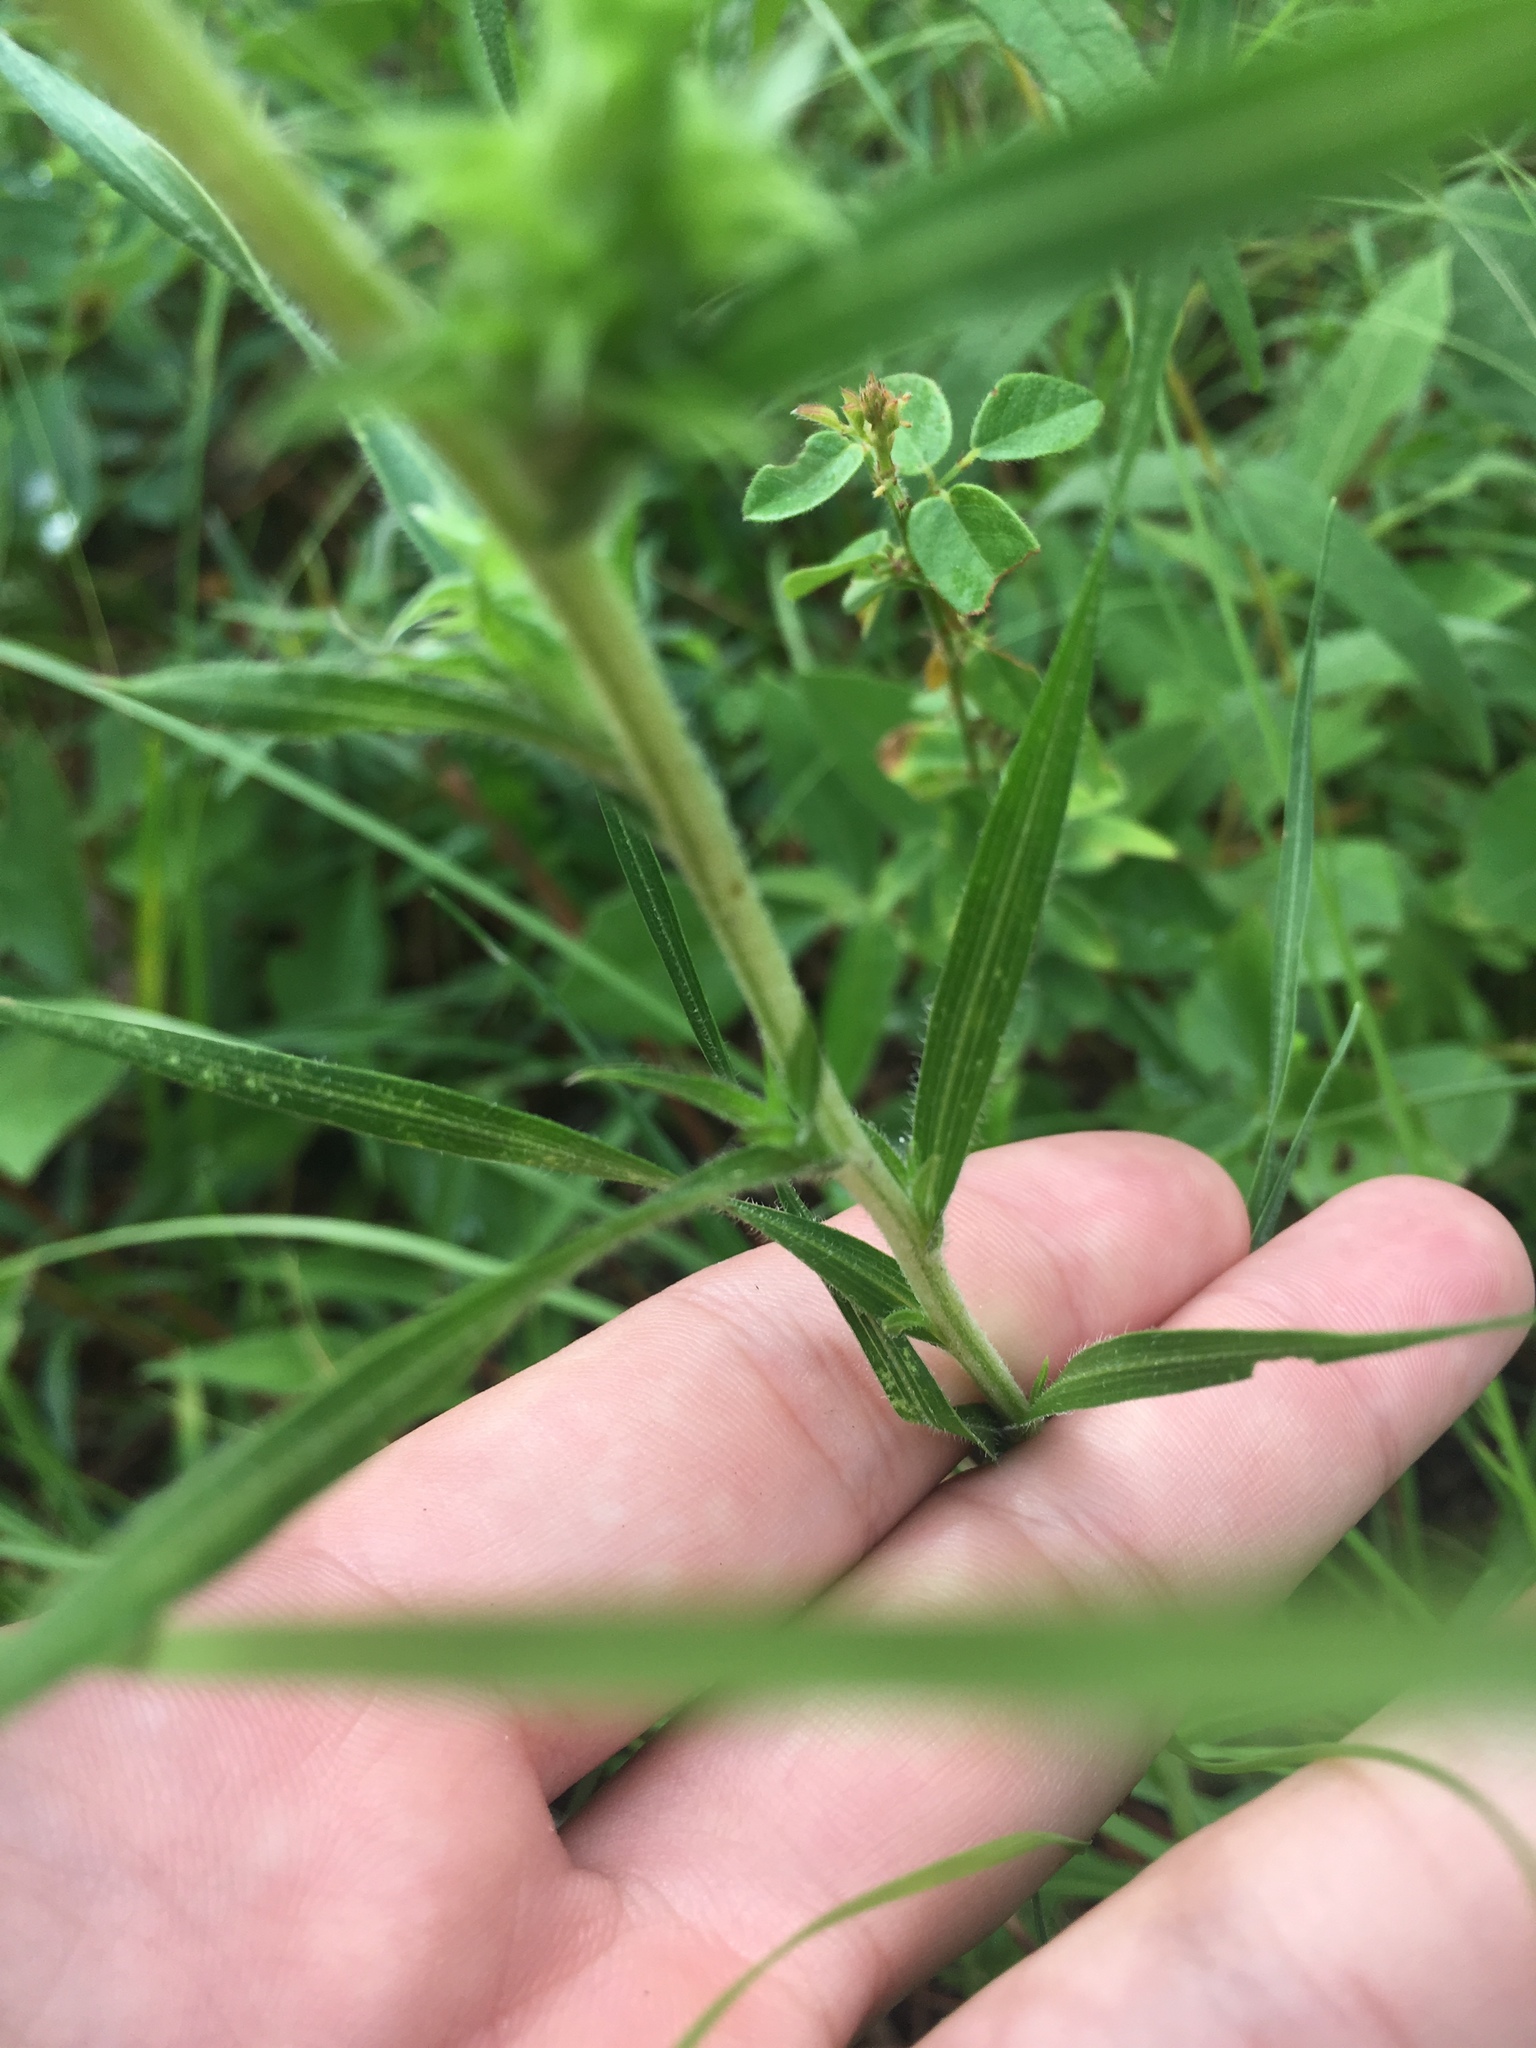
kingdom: Plantae
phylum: Tracheophyta
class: Magnoliopsida
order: Asterales
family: Asteraceae
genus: Liatris
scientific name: Liatris squarrosa
